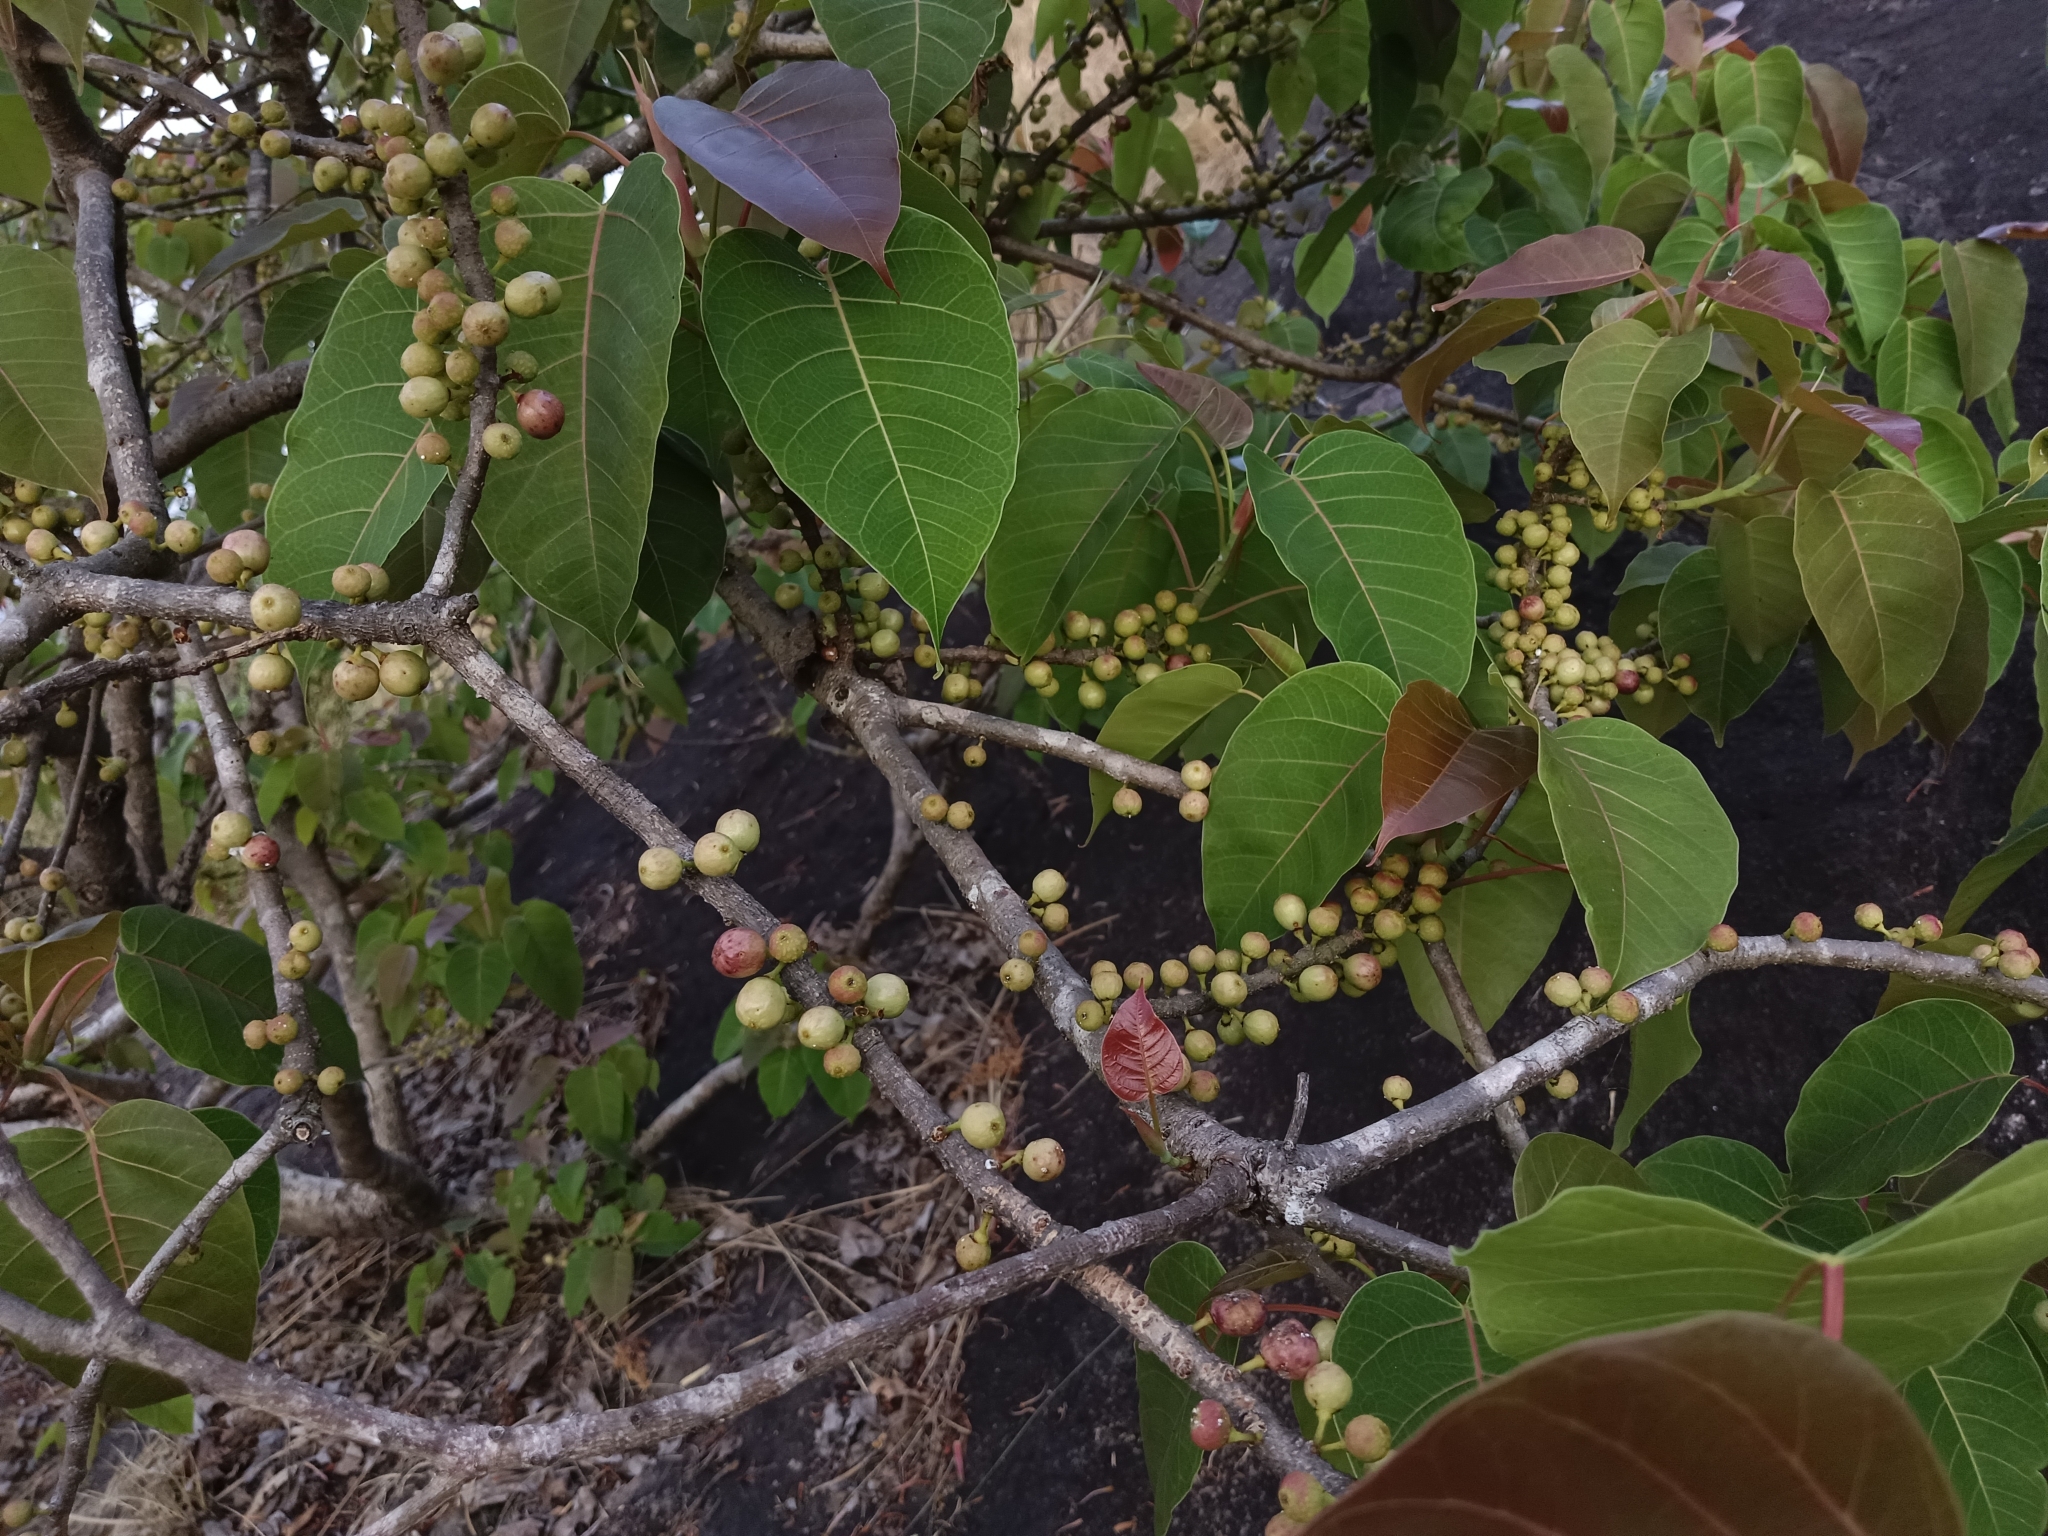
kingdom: Plantae
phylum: Tracheophyta
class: Magnoliopsida
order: Rosales
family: Moraceae
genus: Ficus
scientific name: Ficus arnottiana
